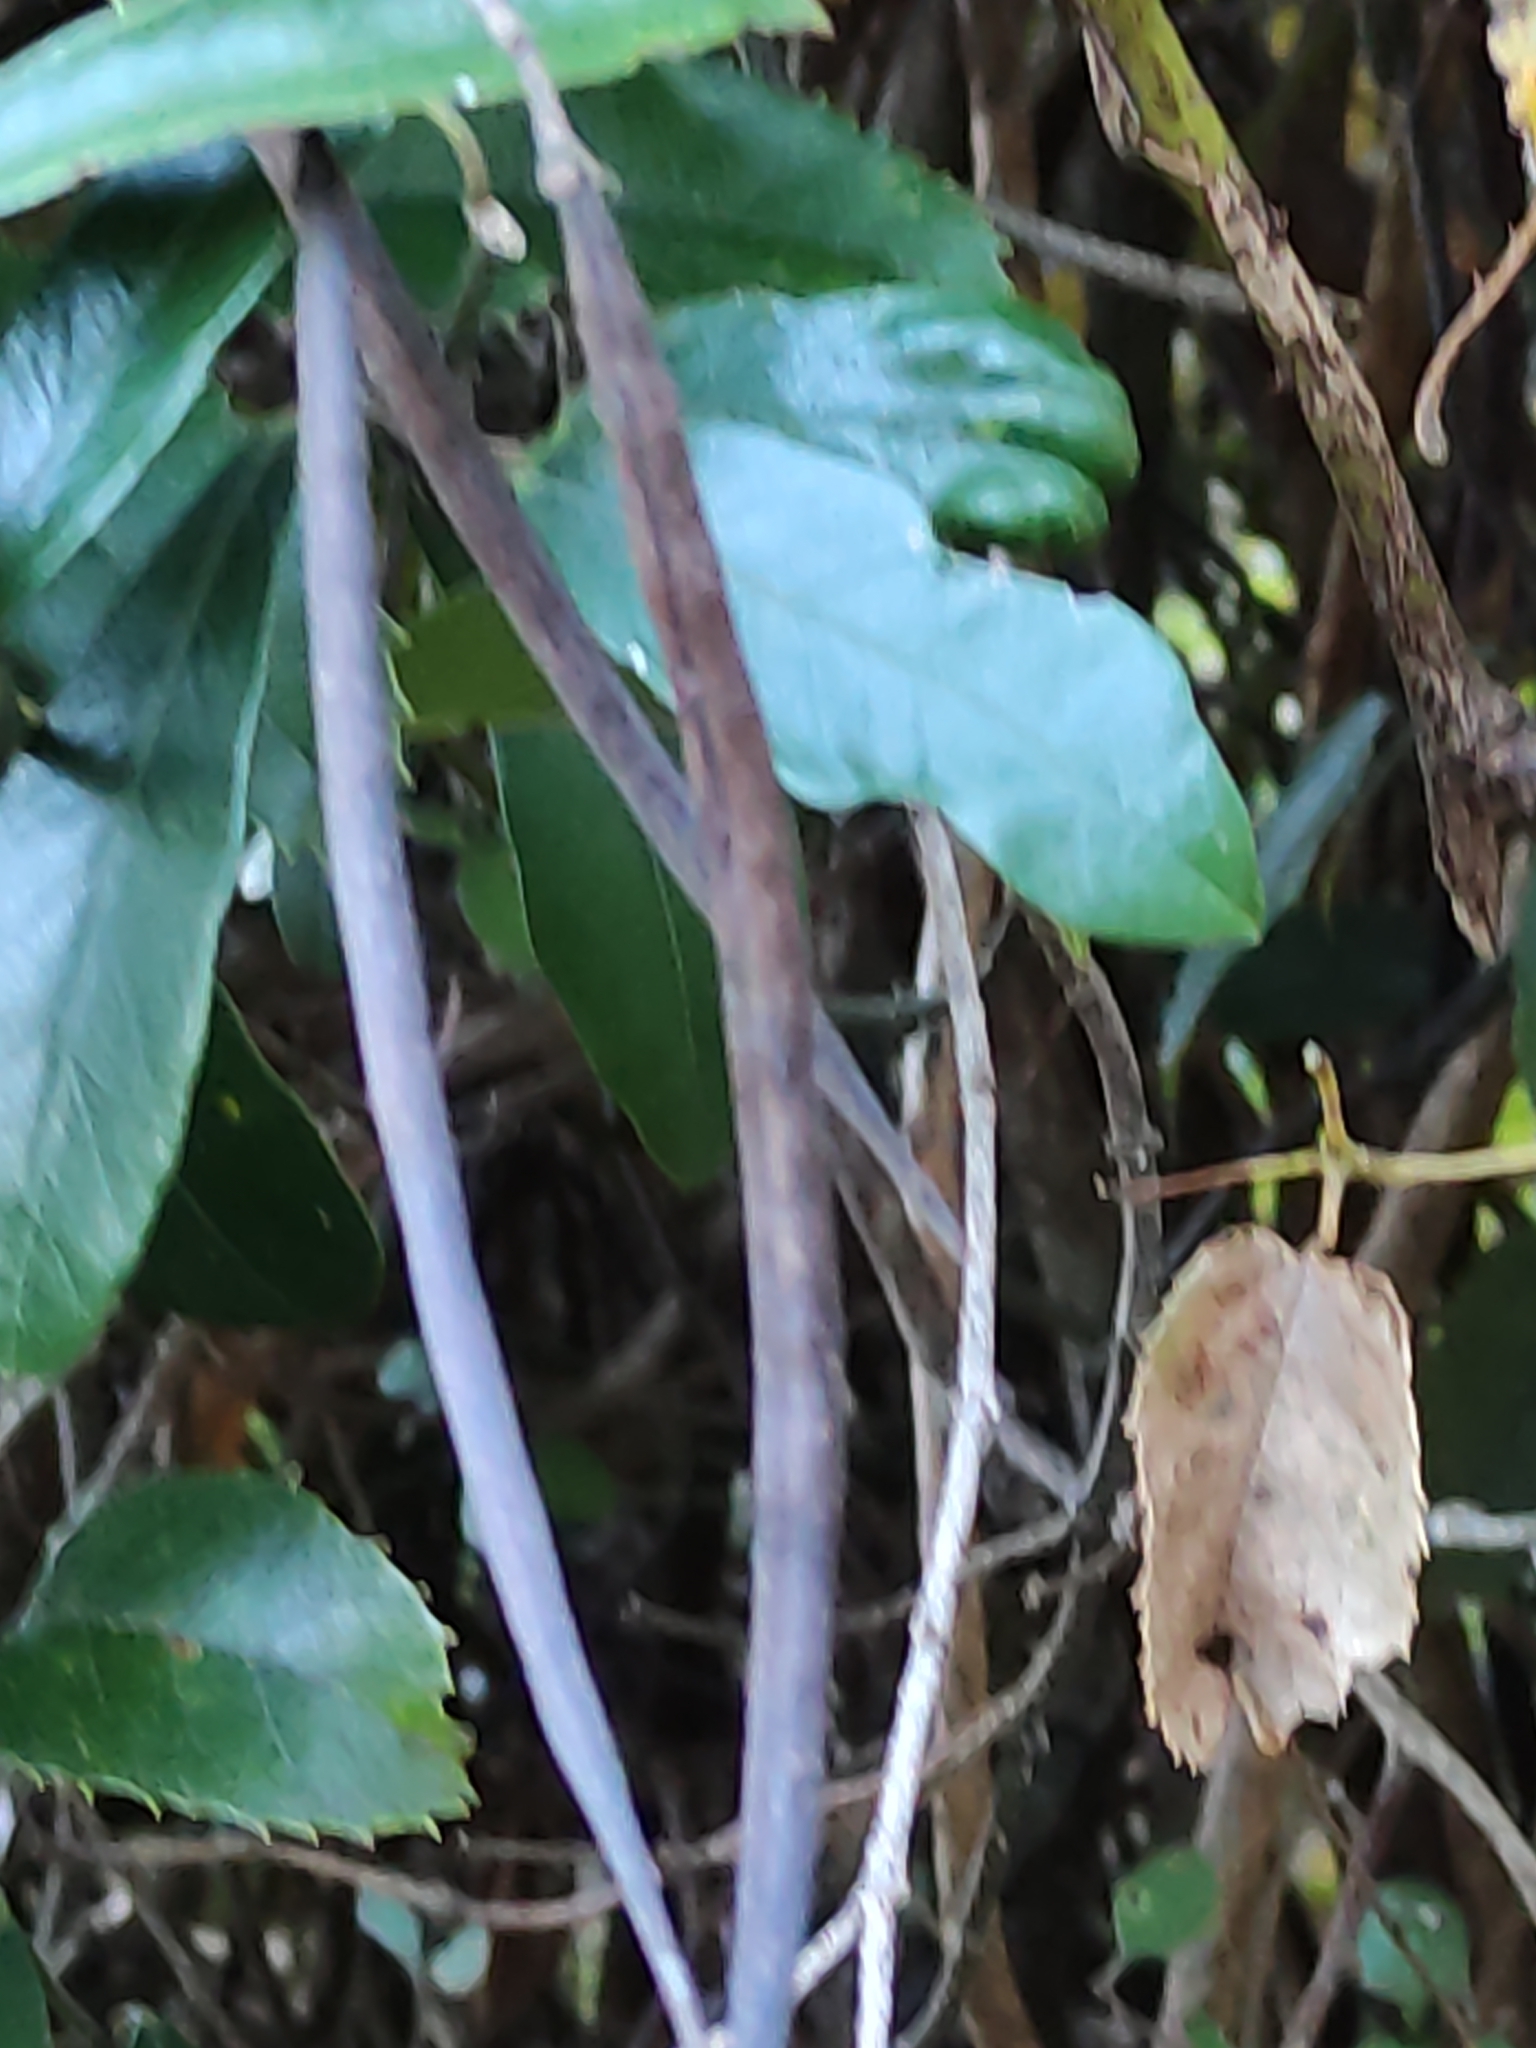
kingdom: Plantae
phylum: Tracheophyta
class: Magnoliopsida
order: Rosales
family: Rosaceae
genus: Rubus
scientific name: Rubus cissoides
